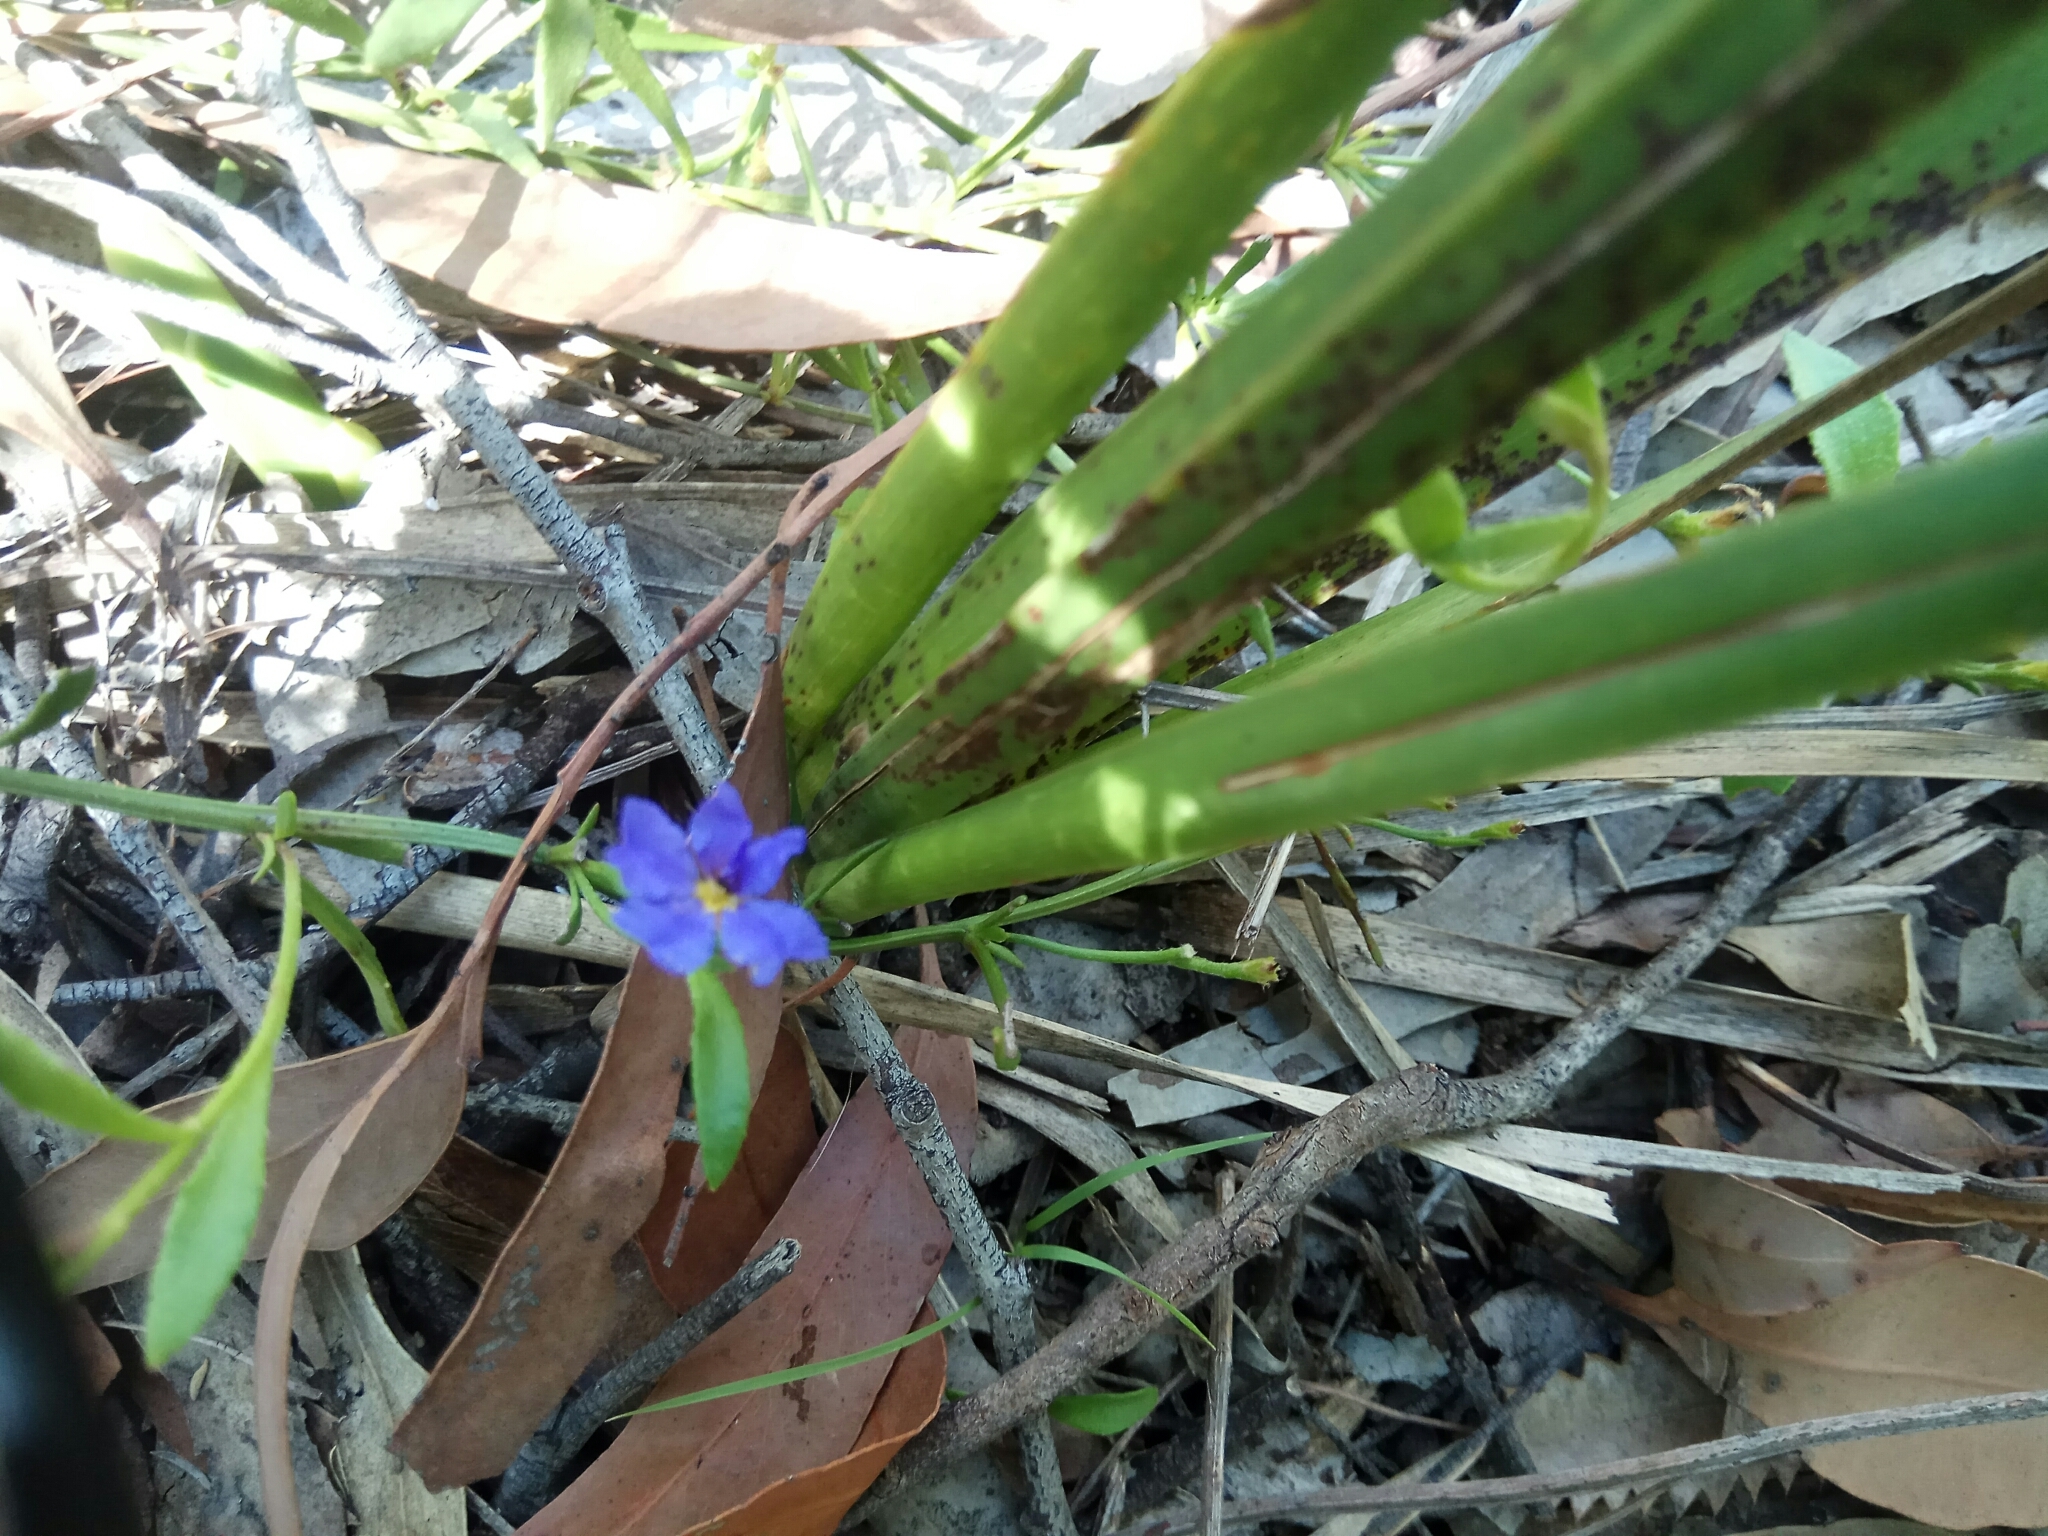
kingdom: Plantae
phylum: Tracheophyta
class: Magnoliopsida
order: Asterales
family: Goodeniaceae
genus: Dampiera
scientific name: Dampiera stricta
